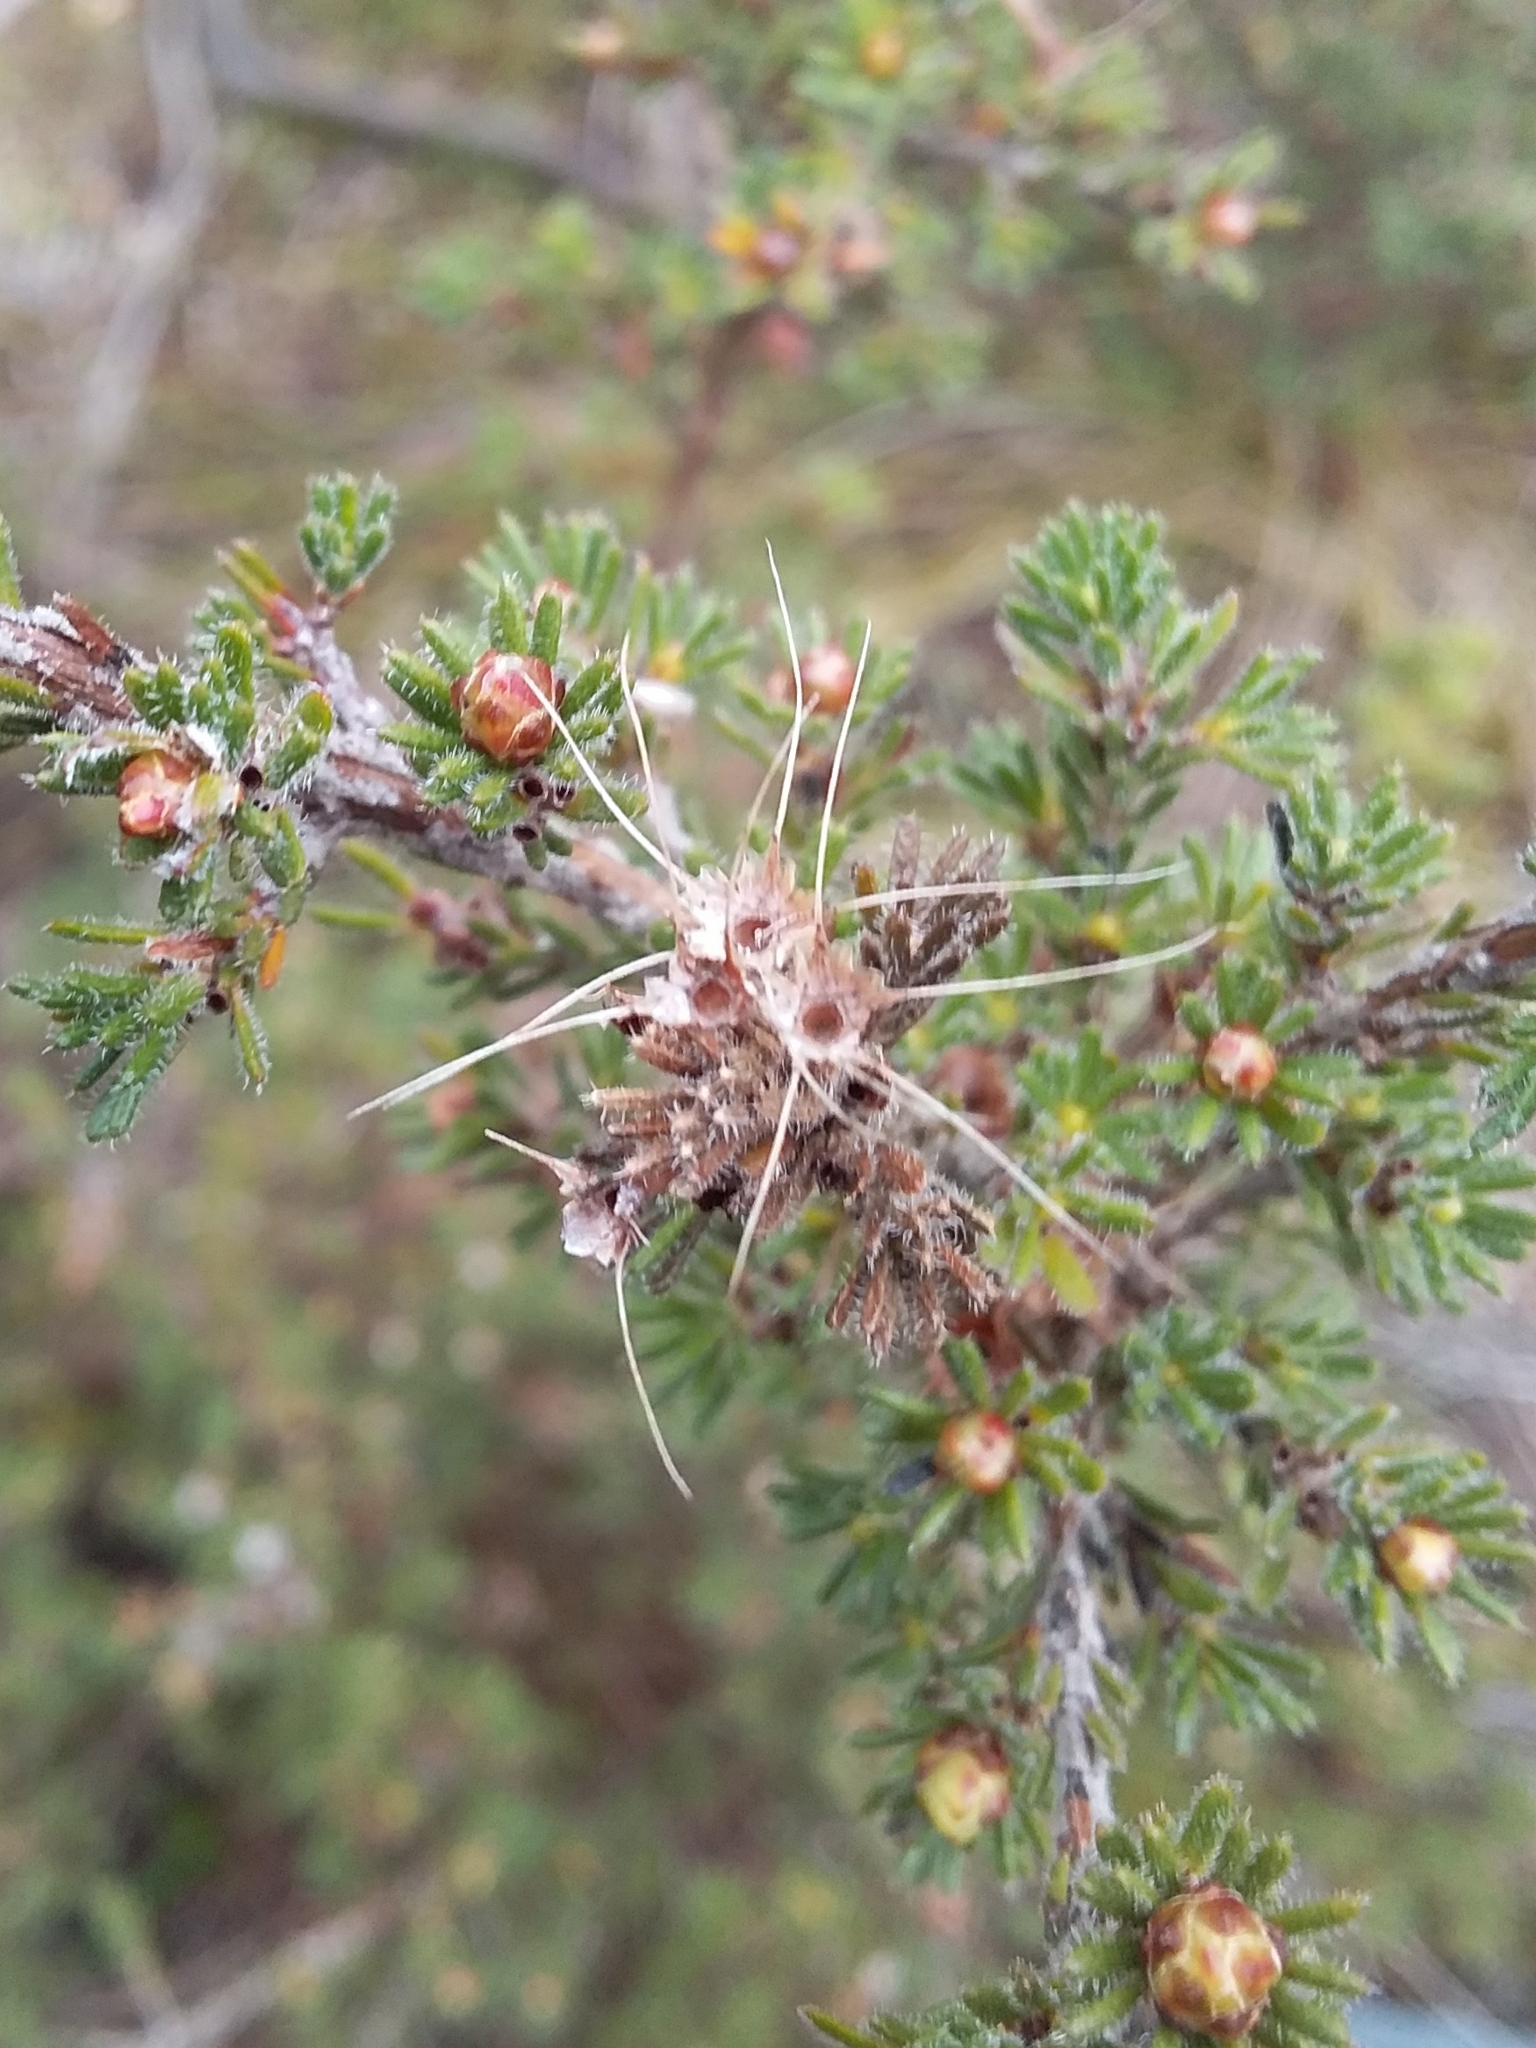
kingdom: Plantae
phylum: Tracheophyta
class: Magnoliopsida
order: Myrtales
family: Myrtaceae
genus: Calytrix
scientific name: Calytrix tetragona
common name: Common fringe myrtle
